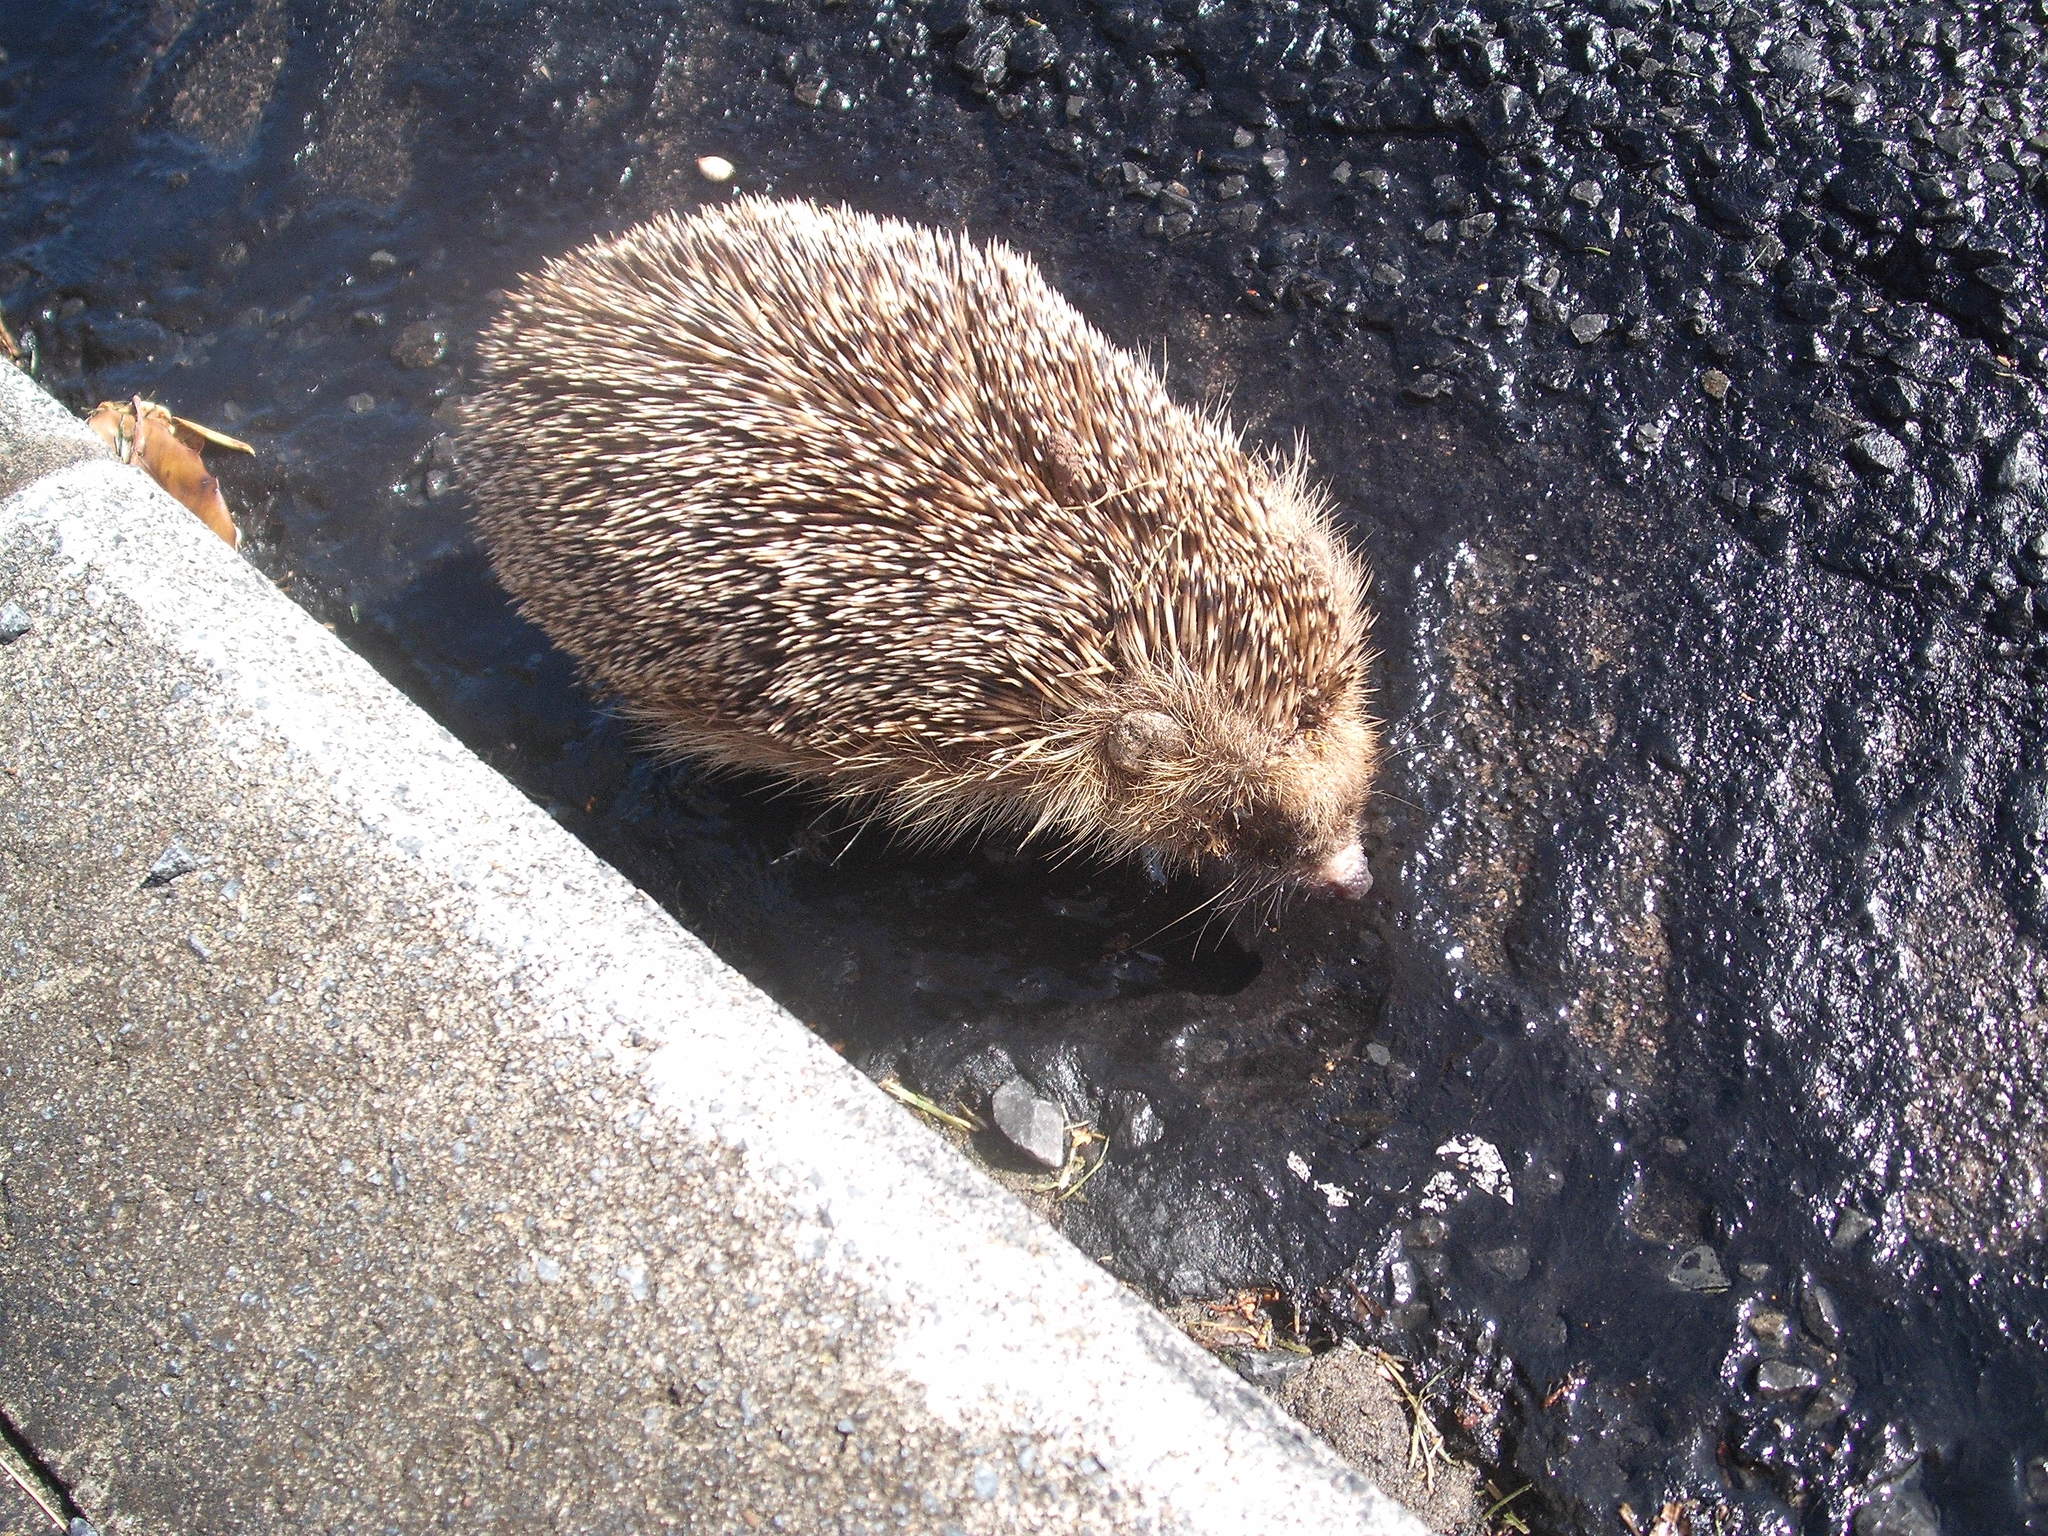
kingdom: Animalia
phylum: Chordata
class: Mammalia
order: Erinaceomorpha
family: Erinaceidae
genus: Erinaceus
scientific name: Erinaceus europaeus
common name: West european hedgehog
